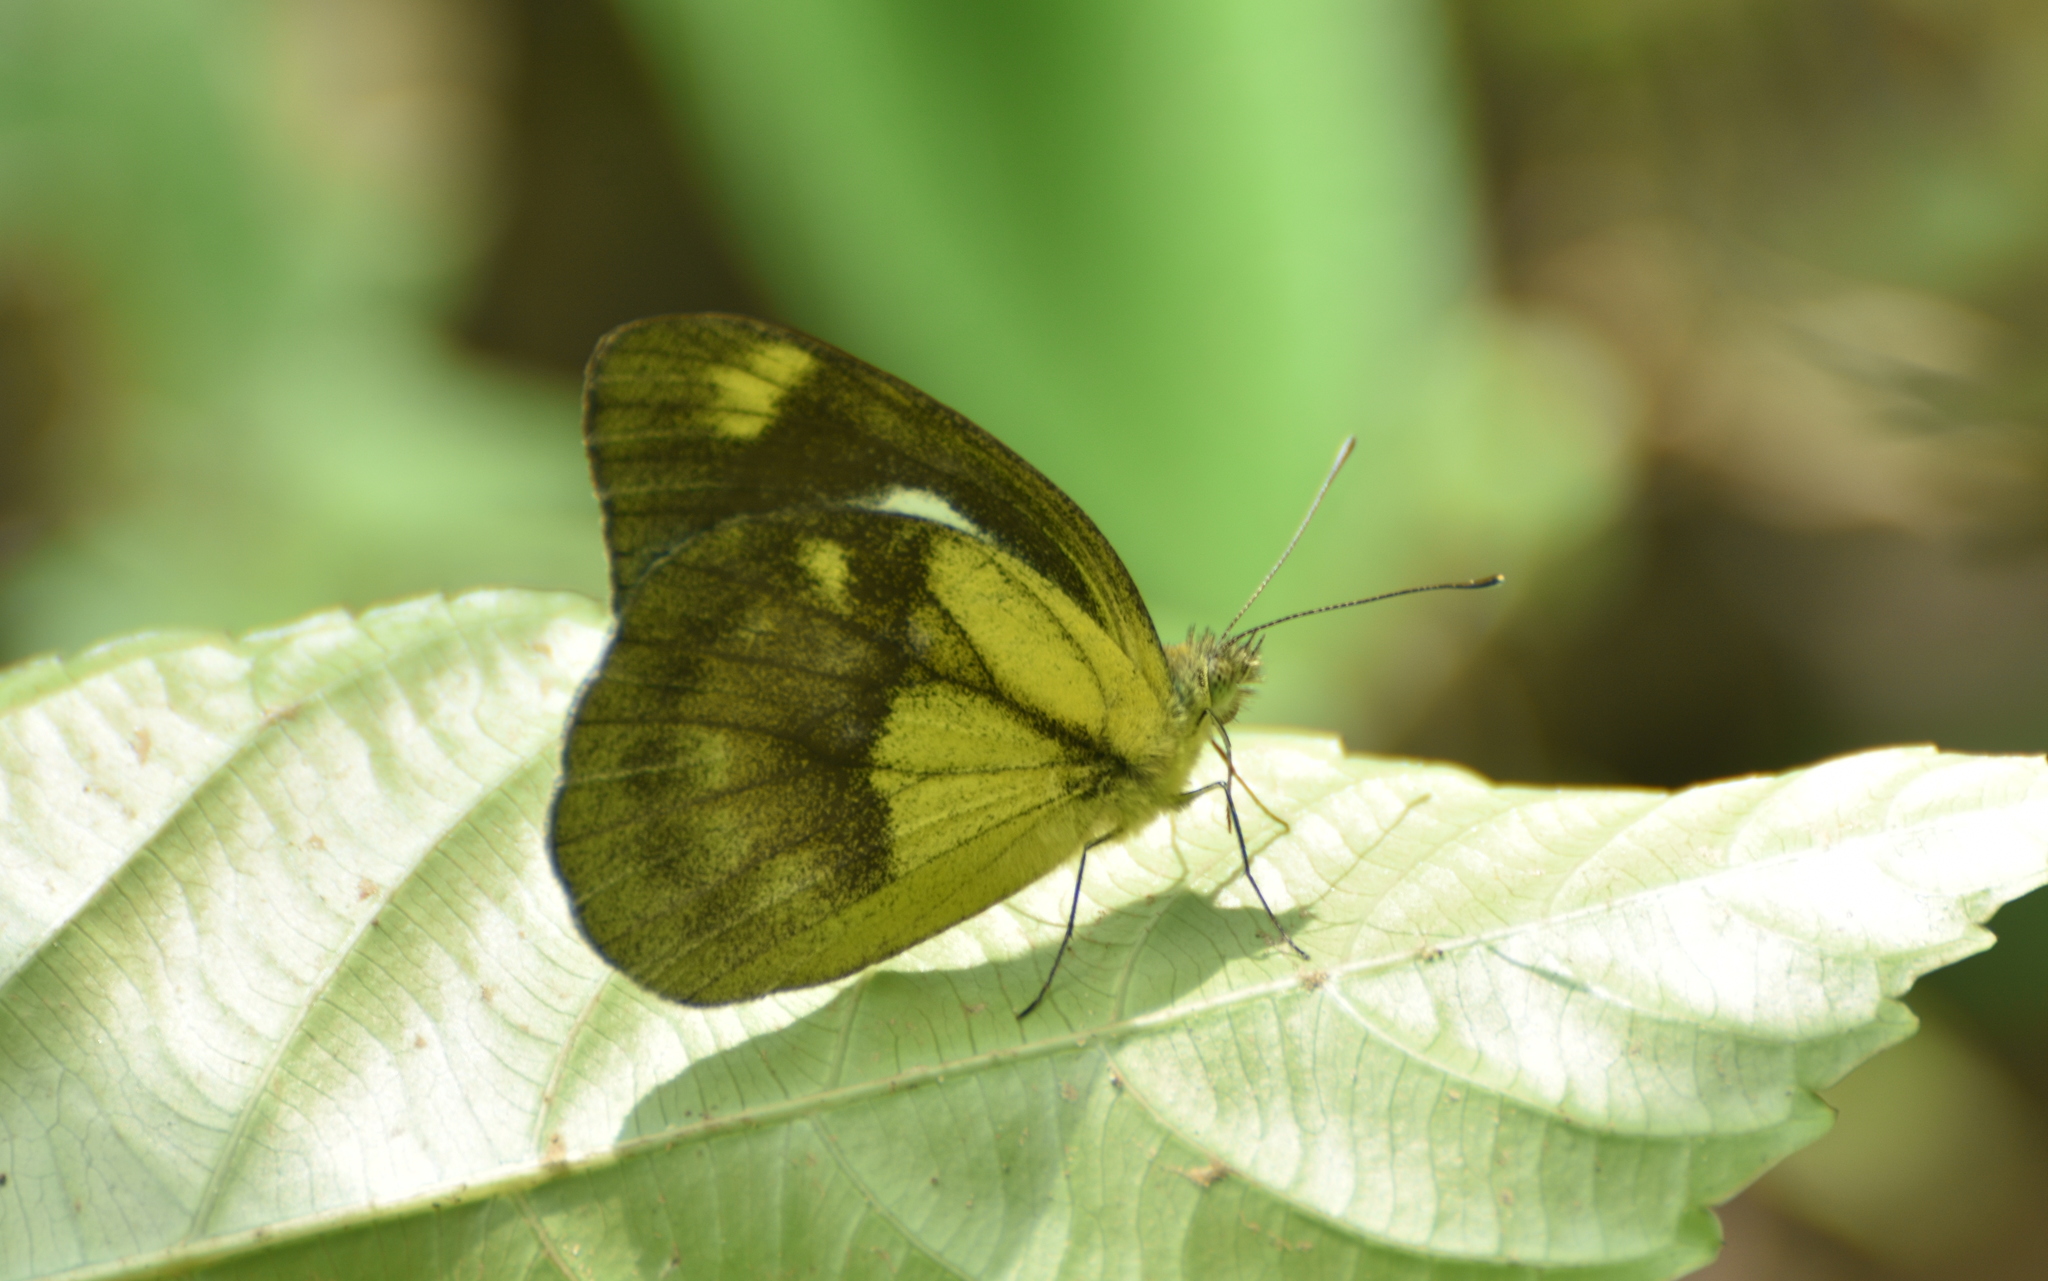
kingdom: Animalia
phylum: Arthropoda
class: Insecta
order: Lepidoptera
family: Pieridae
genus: Cepora
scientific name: Cepora nadina
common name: Lesser gull
